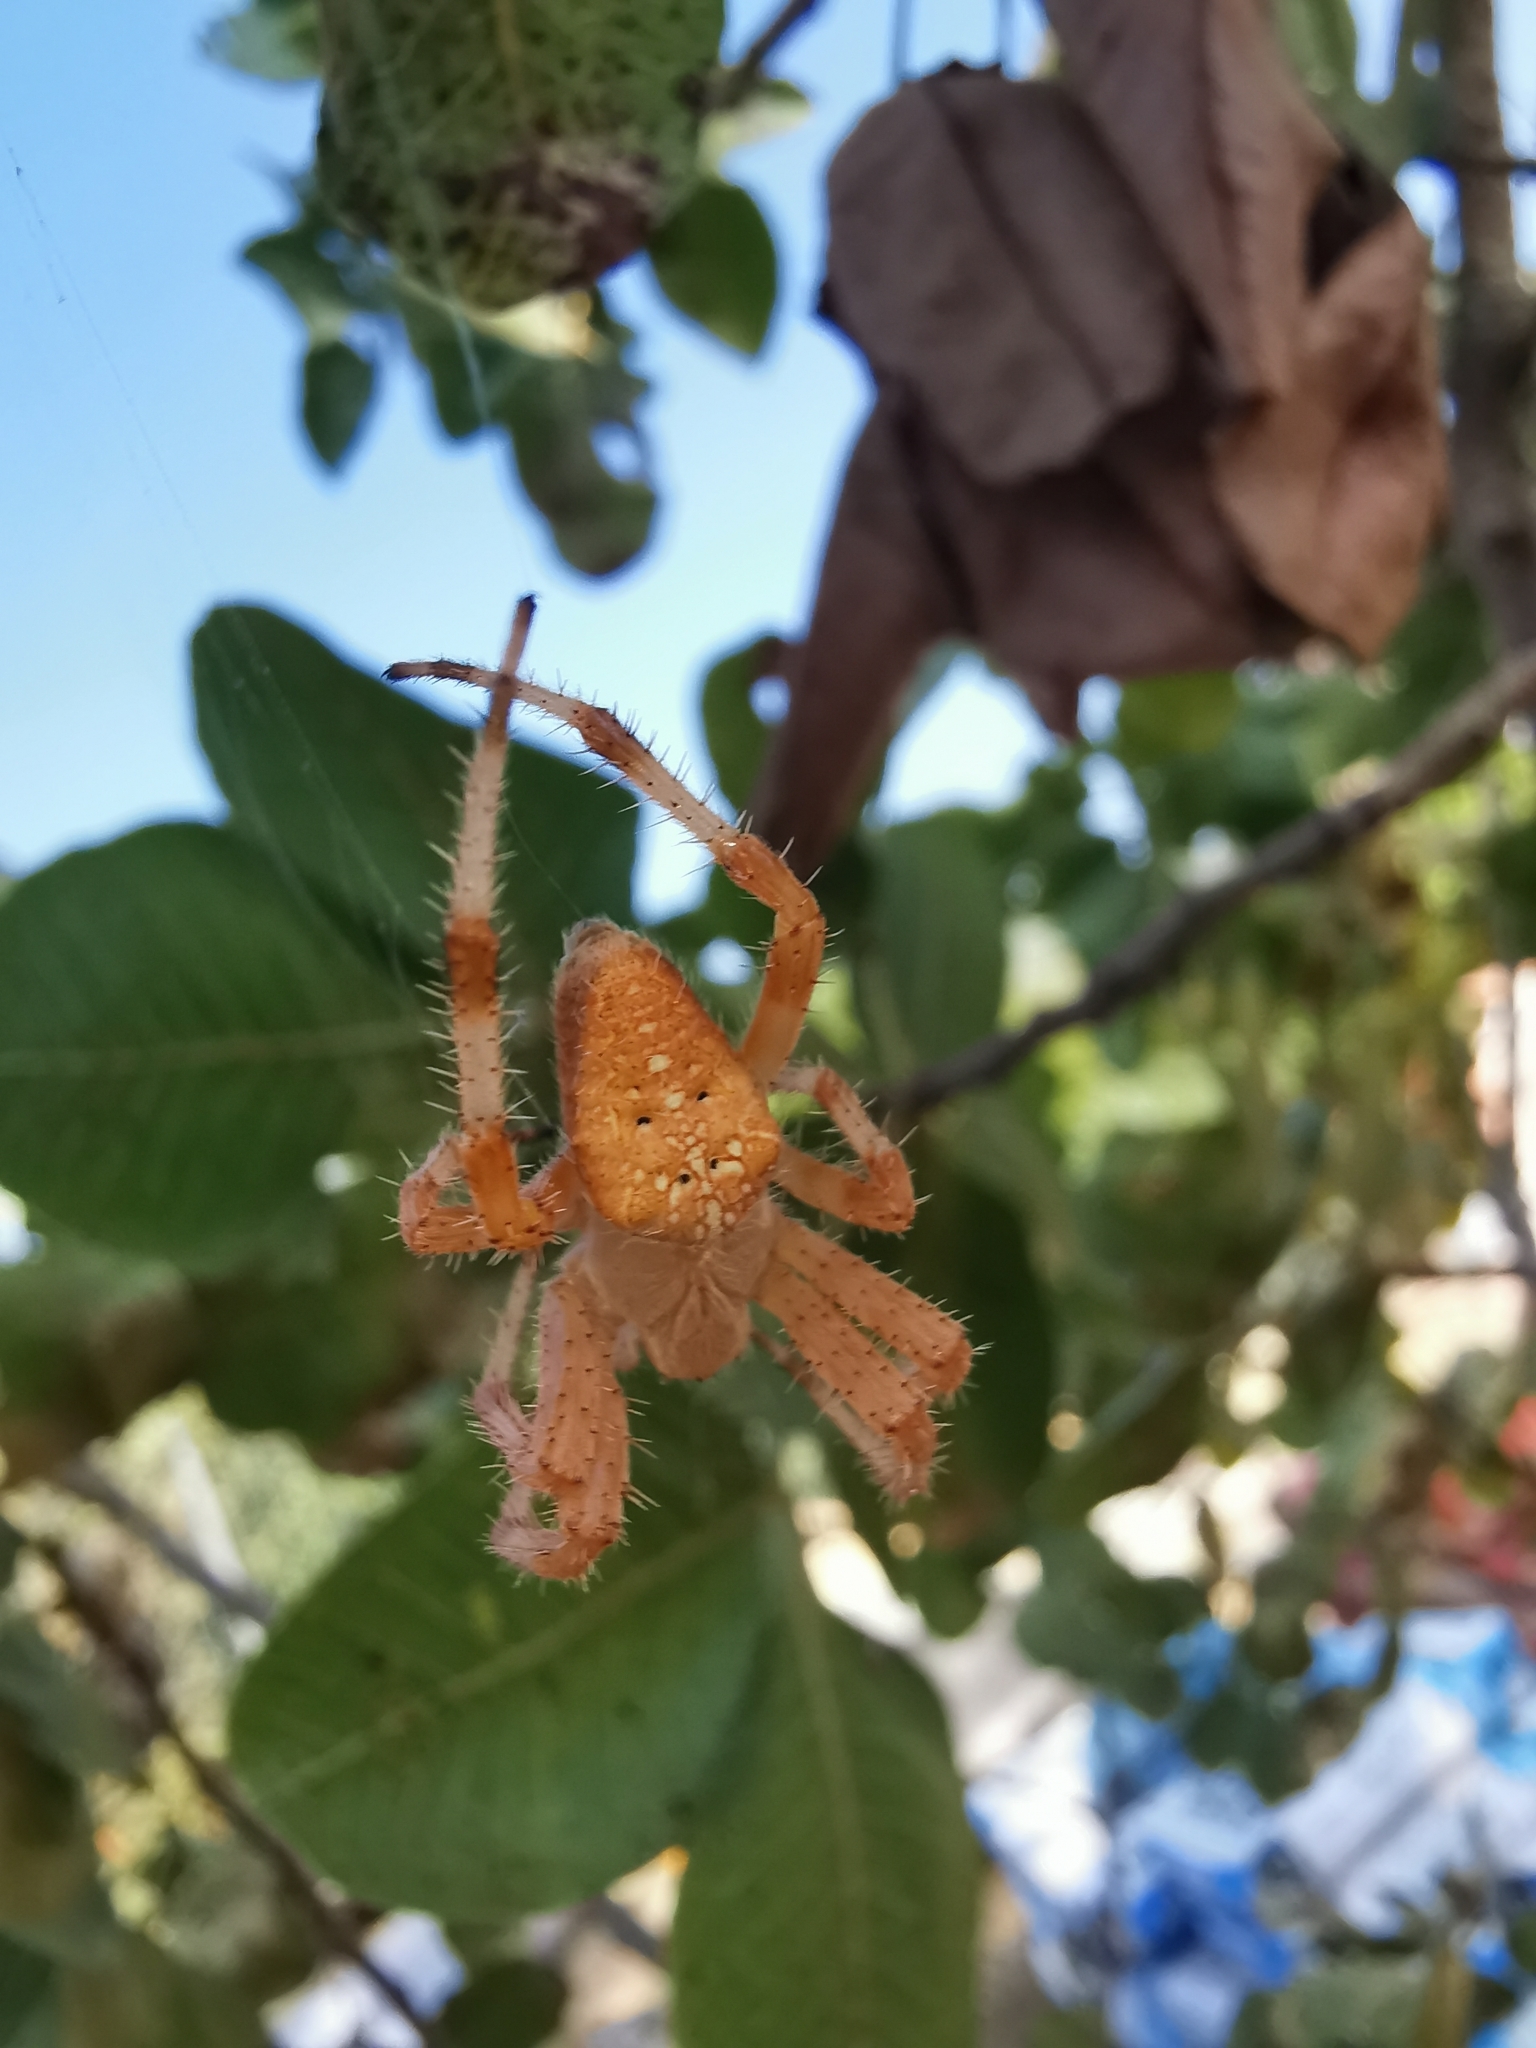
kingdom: Animalia
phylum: Arthropoda
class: Arachnida
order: Araneae
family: Araneidae
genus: Araneus
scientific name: Araneus diadematus
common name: Cross orbweaver
